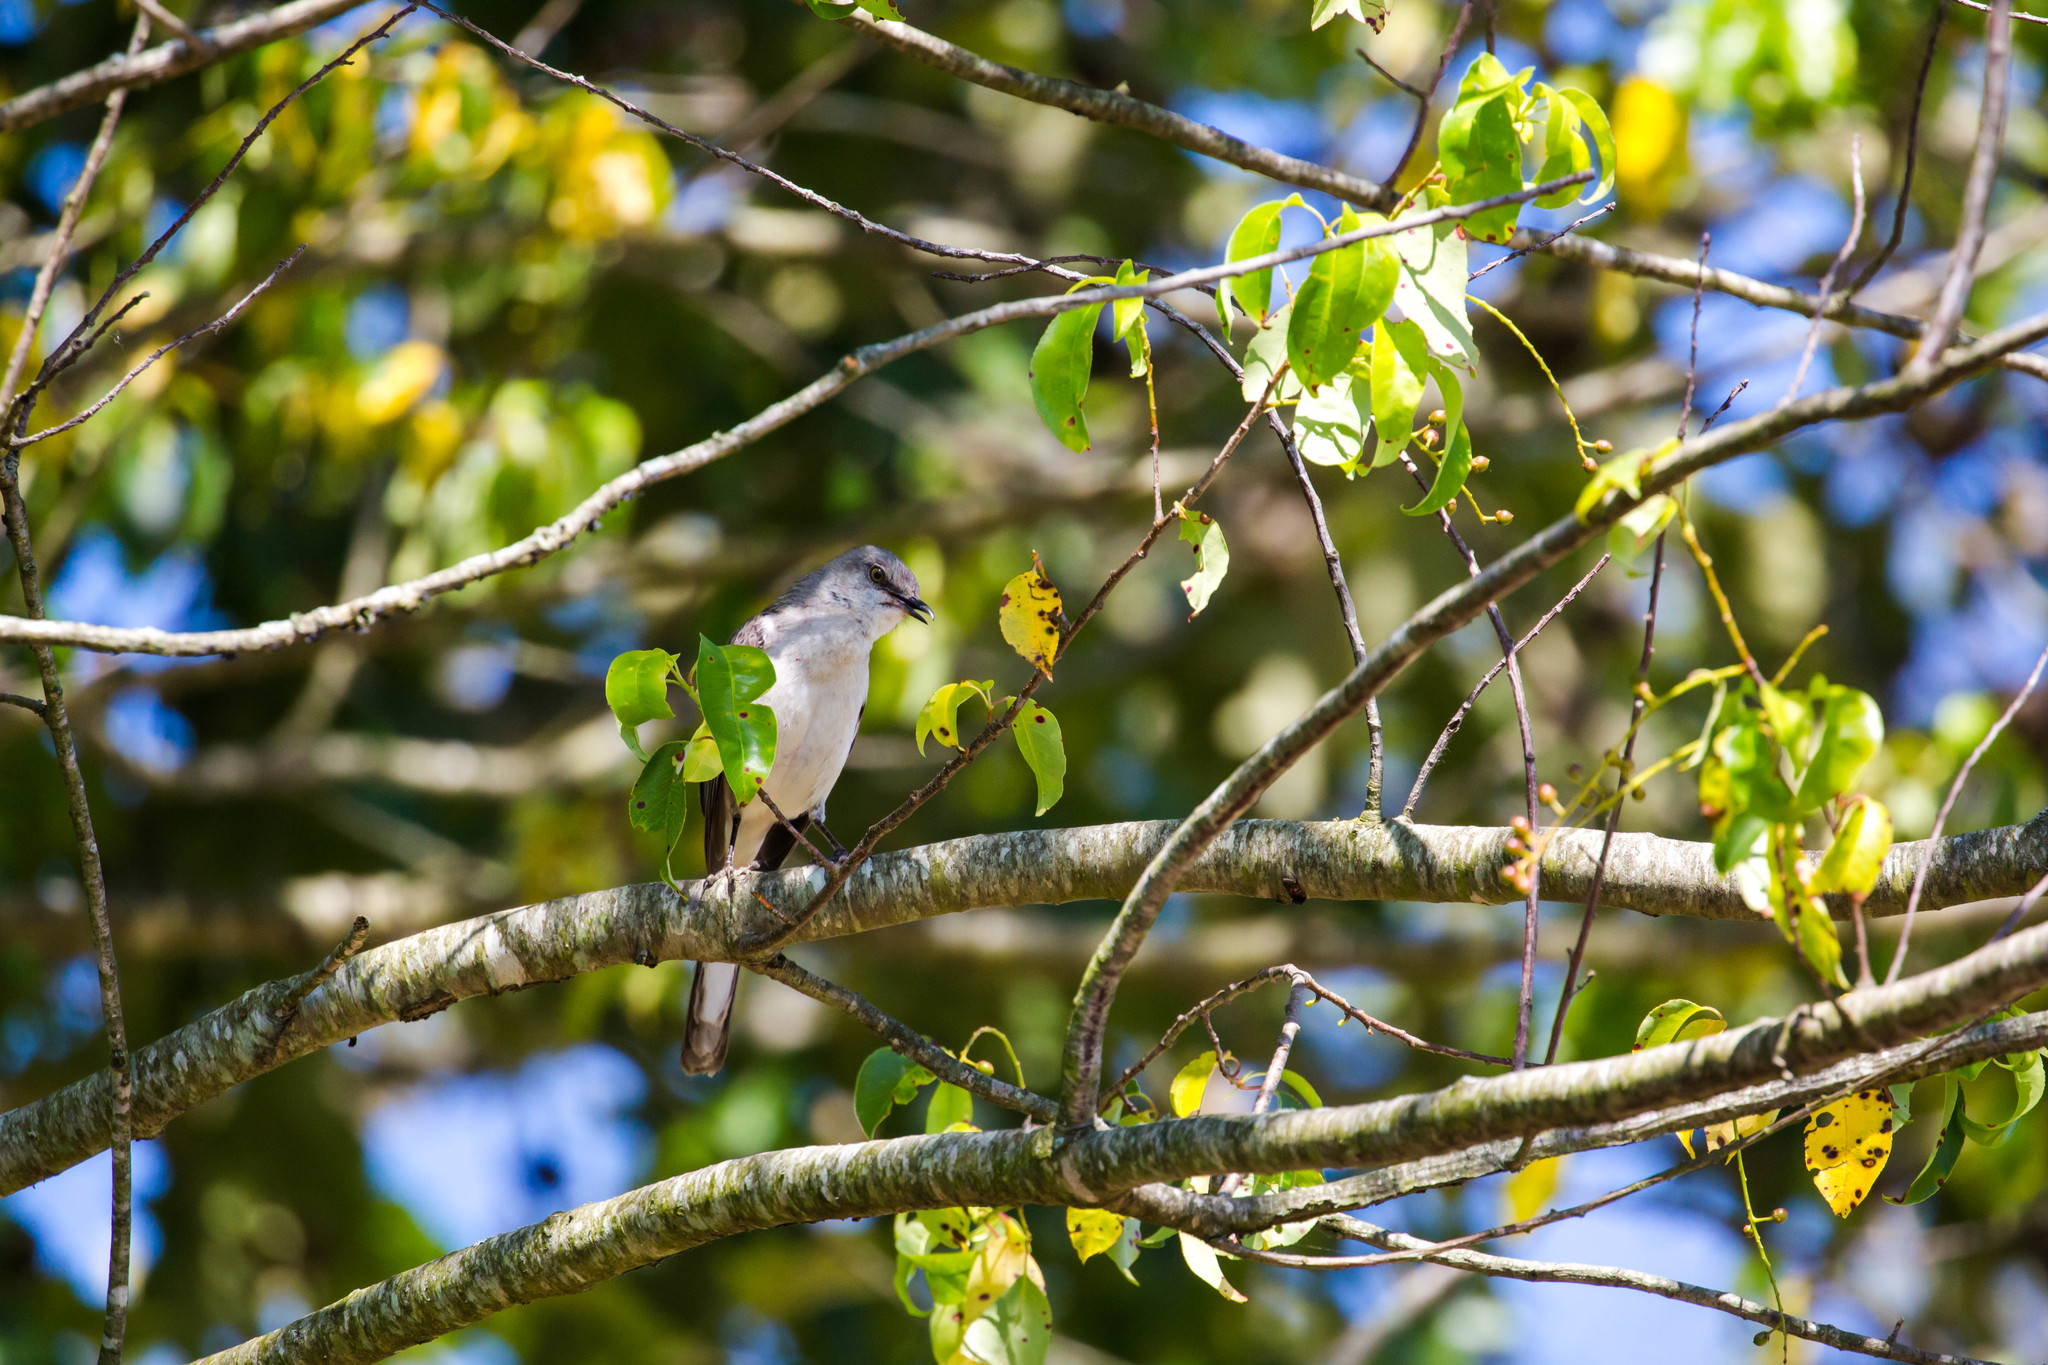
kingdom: Animalia
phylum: Chordata
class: Aves
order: Passeriformes
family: Mimidae
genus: Mimus
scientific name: Mimus polyglottos
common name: Northern mockingbird
